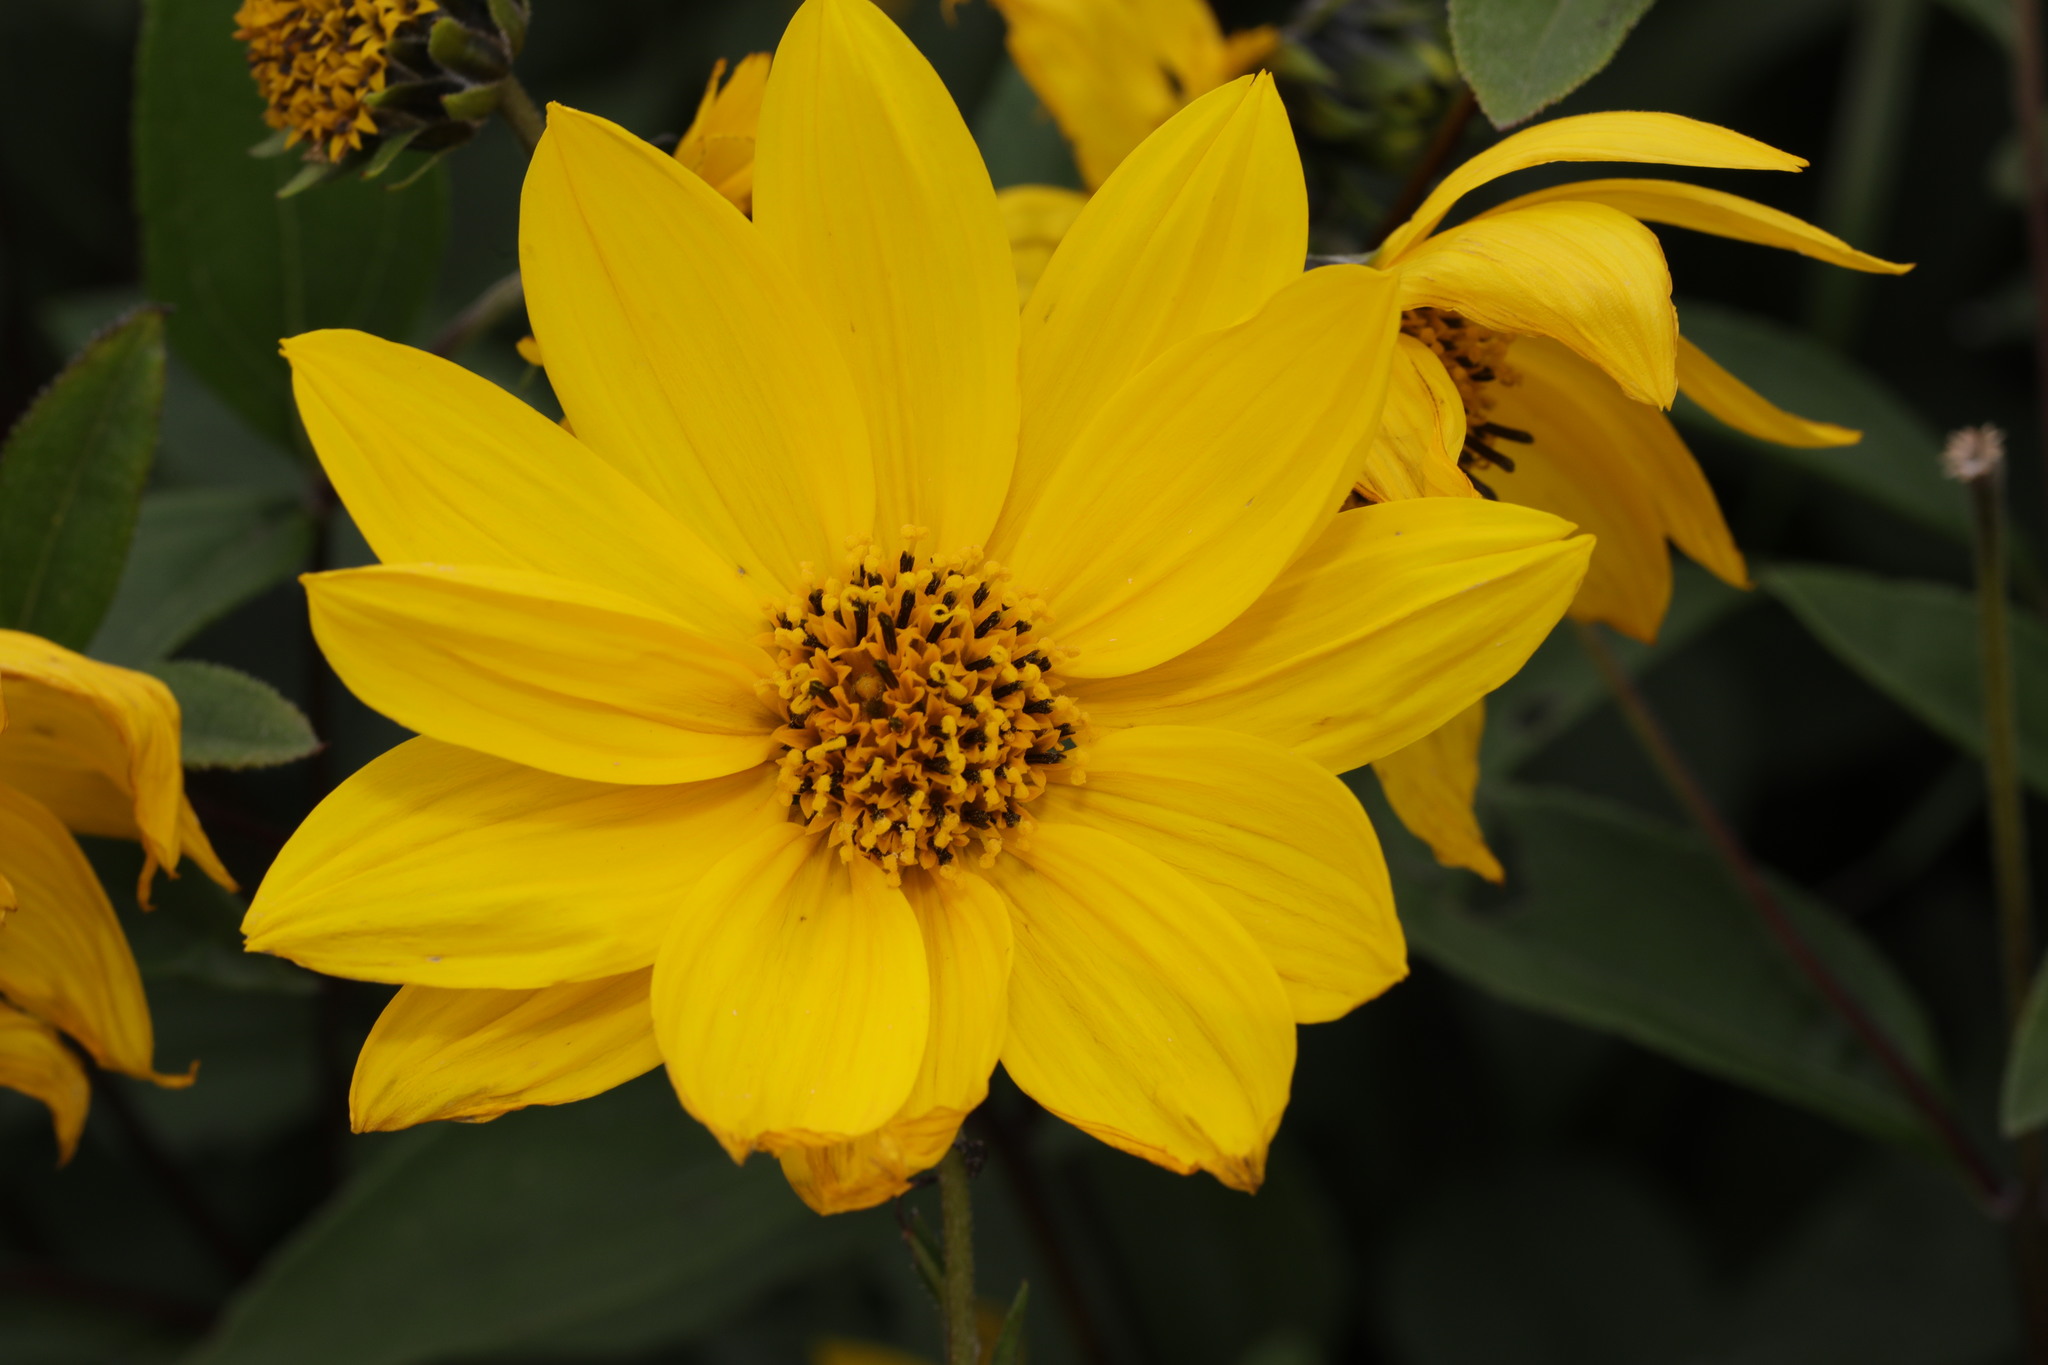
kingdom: Plantae
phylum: Tracheophyta
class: Magnoliopsida
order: Asterales
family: Asteraceae
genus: Helianthus
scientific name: Helianthus tuberosus
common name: Jerusalem artichoke
